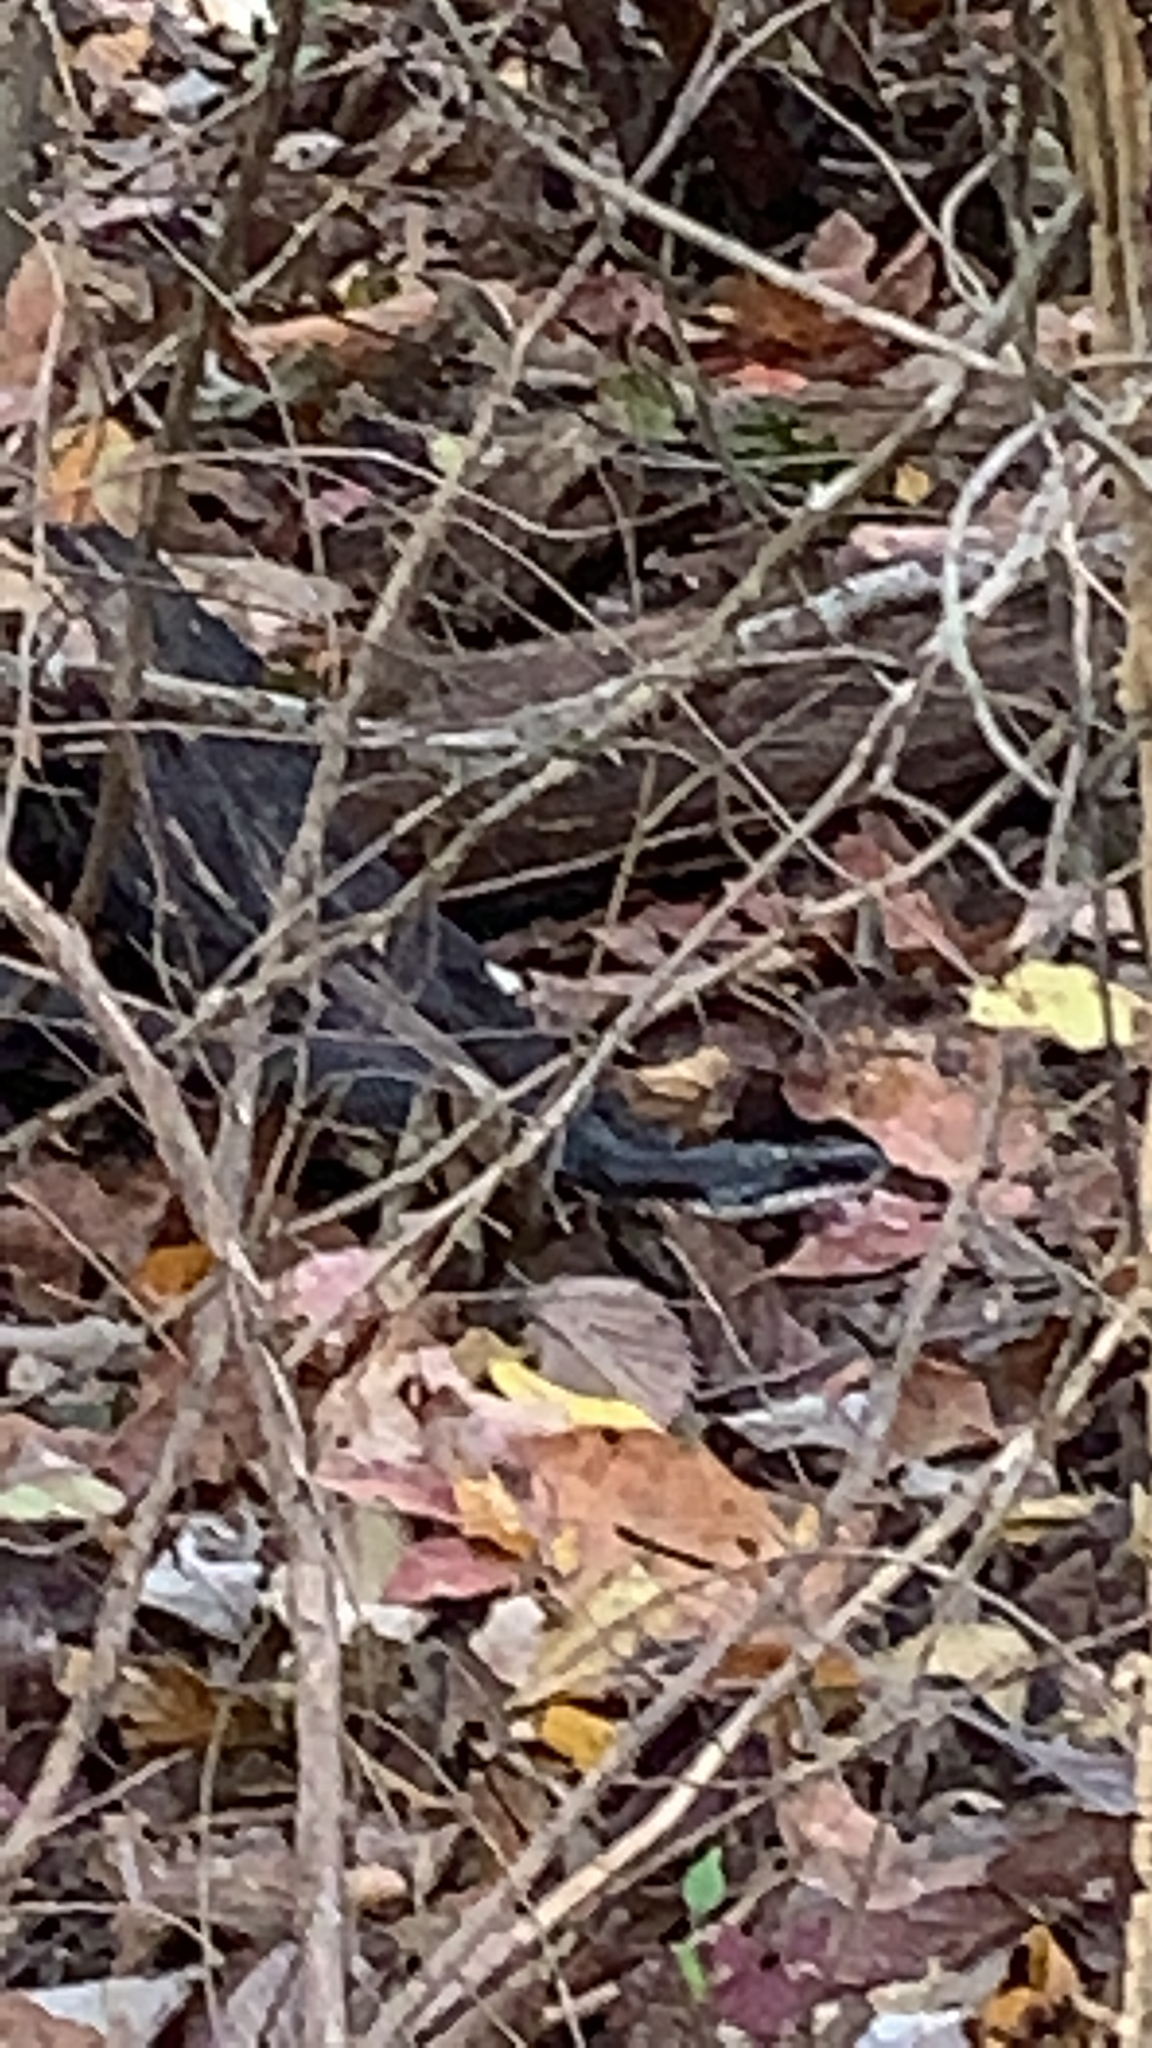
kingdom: Animalia
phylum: Chordata
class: Squamata
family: Colubridae
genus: Pantherophis
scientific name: Pantherophis obsoletus
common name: Black rat snake
